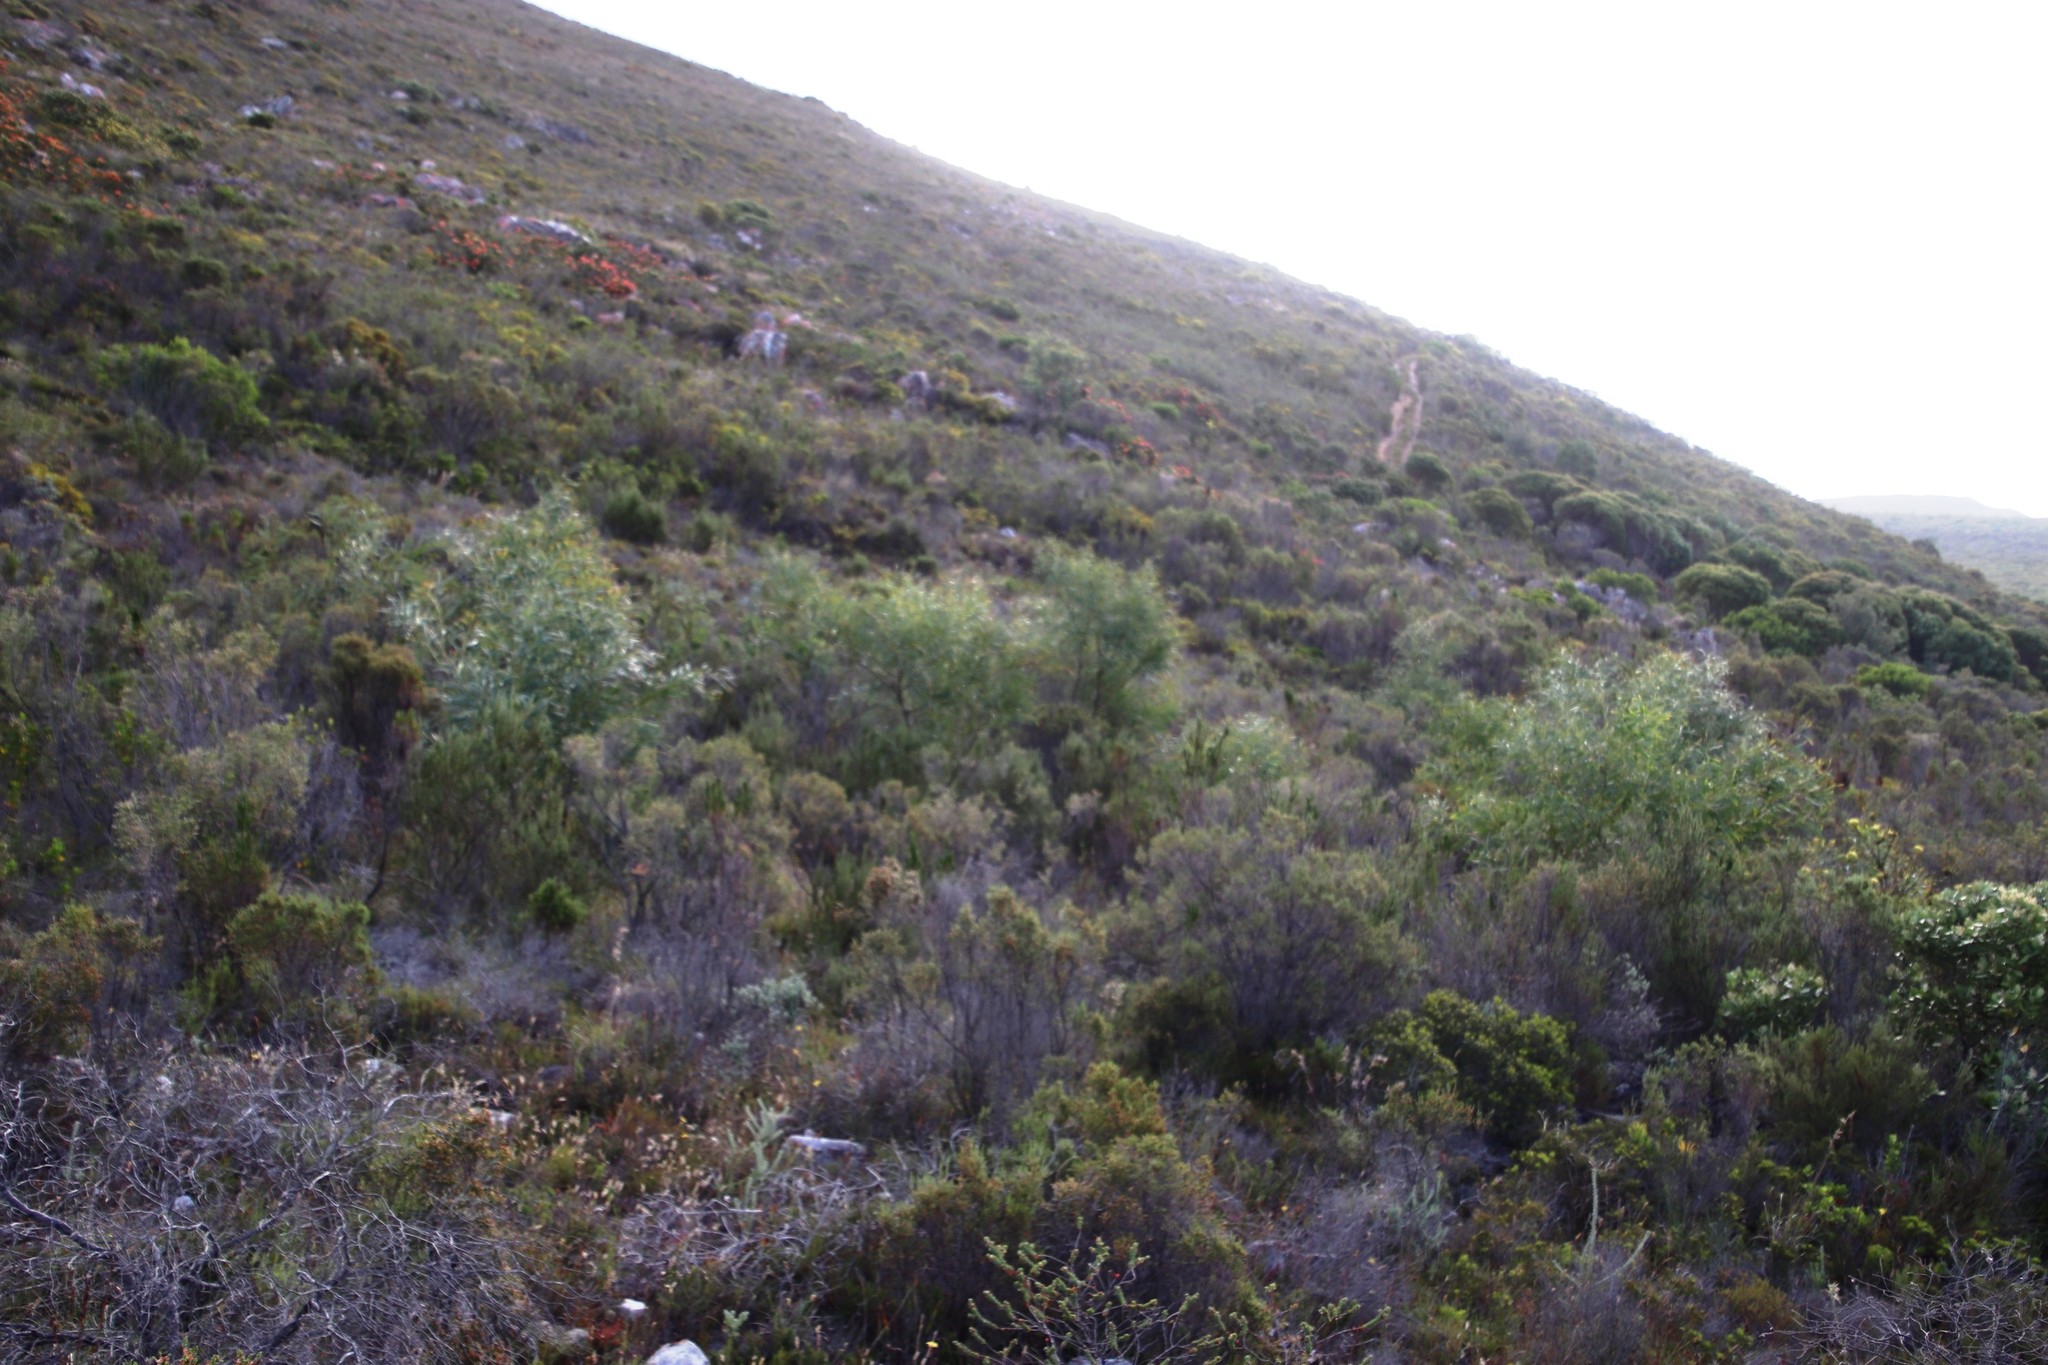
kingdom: Plantae
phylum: Tracheophyta
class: Magnoliopsida
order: Fabales
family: Fabaceae
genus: Acacia
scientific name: Acacia saligna
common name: Orange wattle
